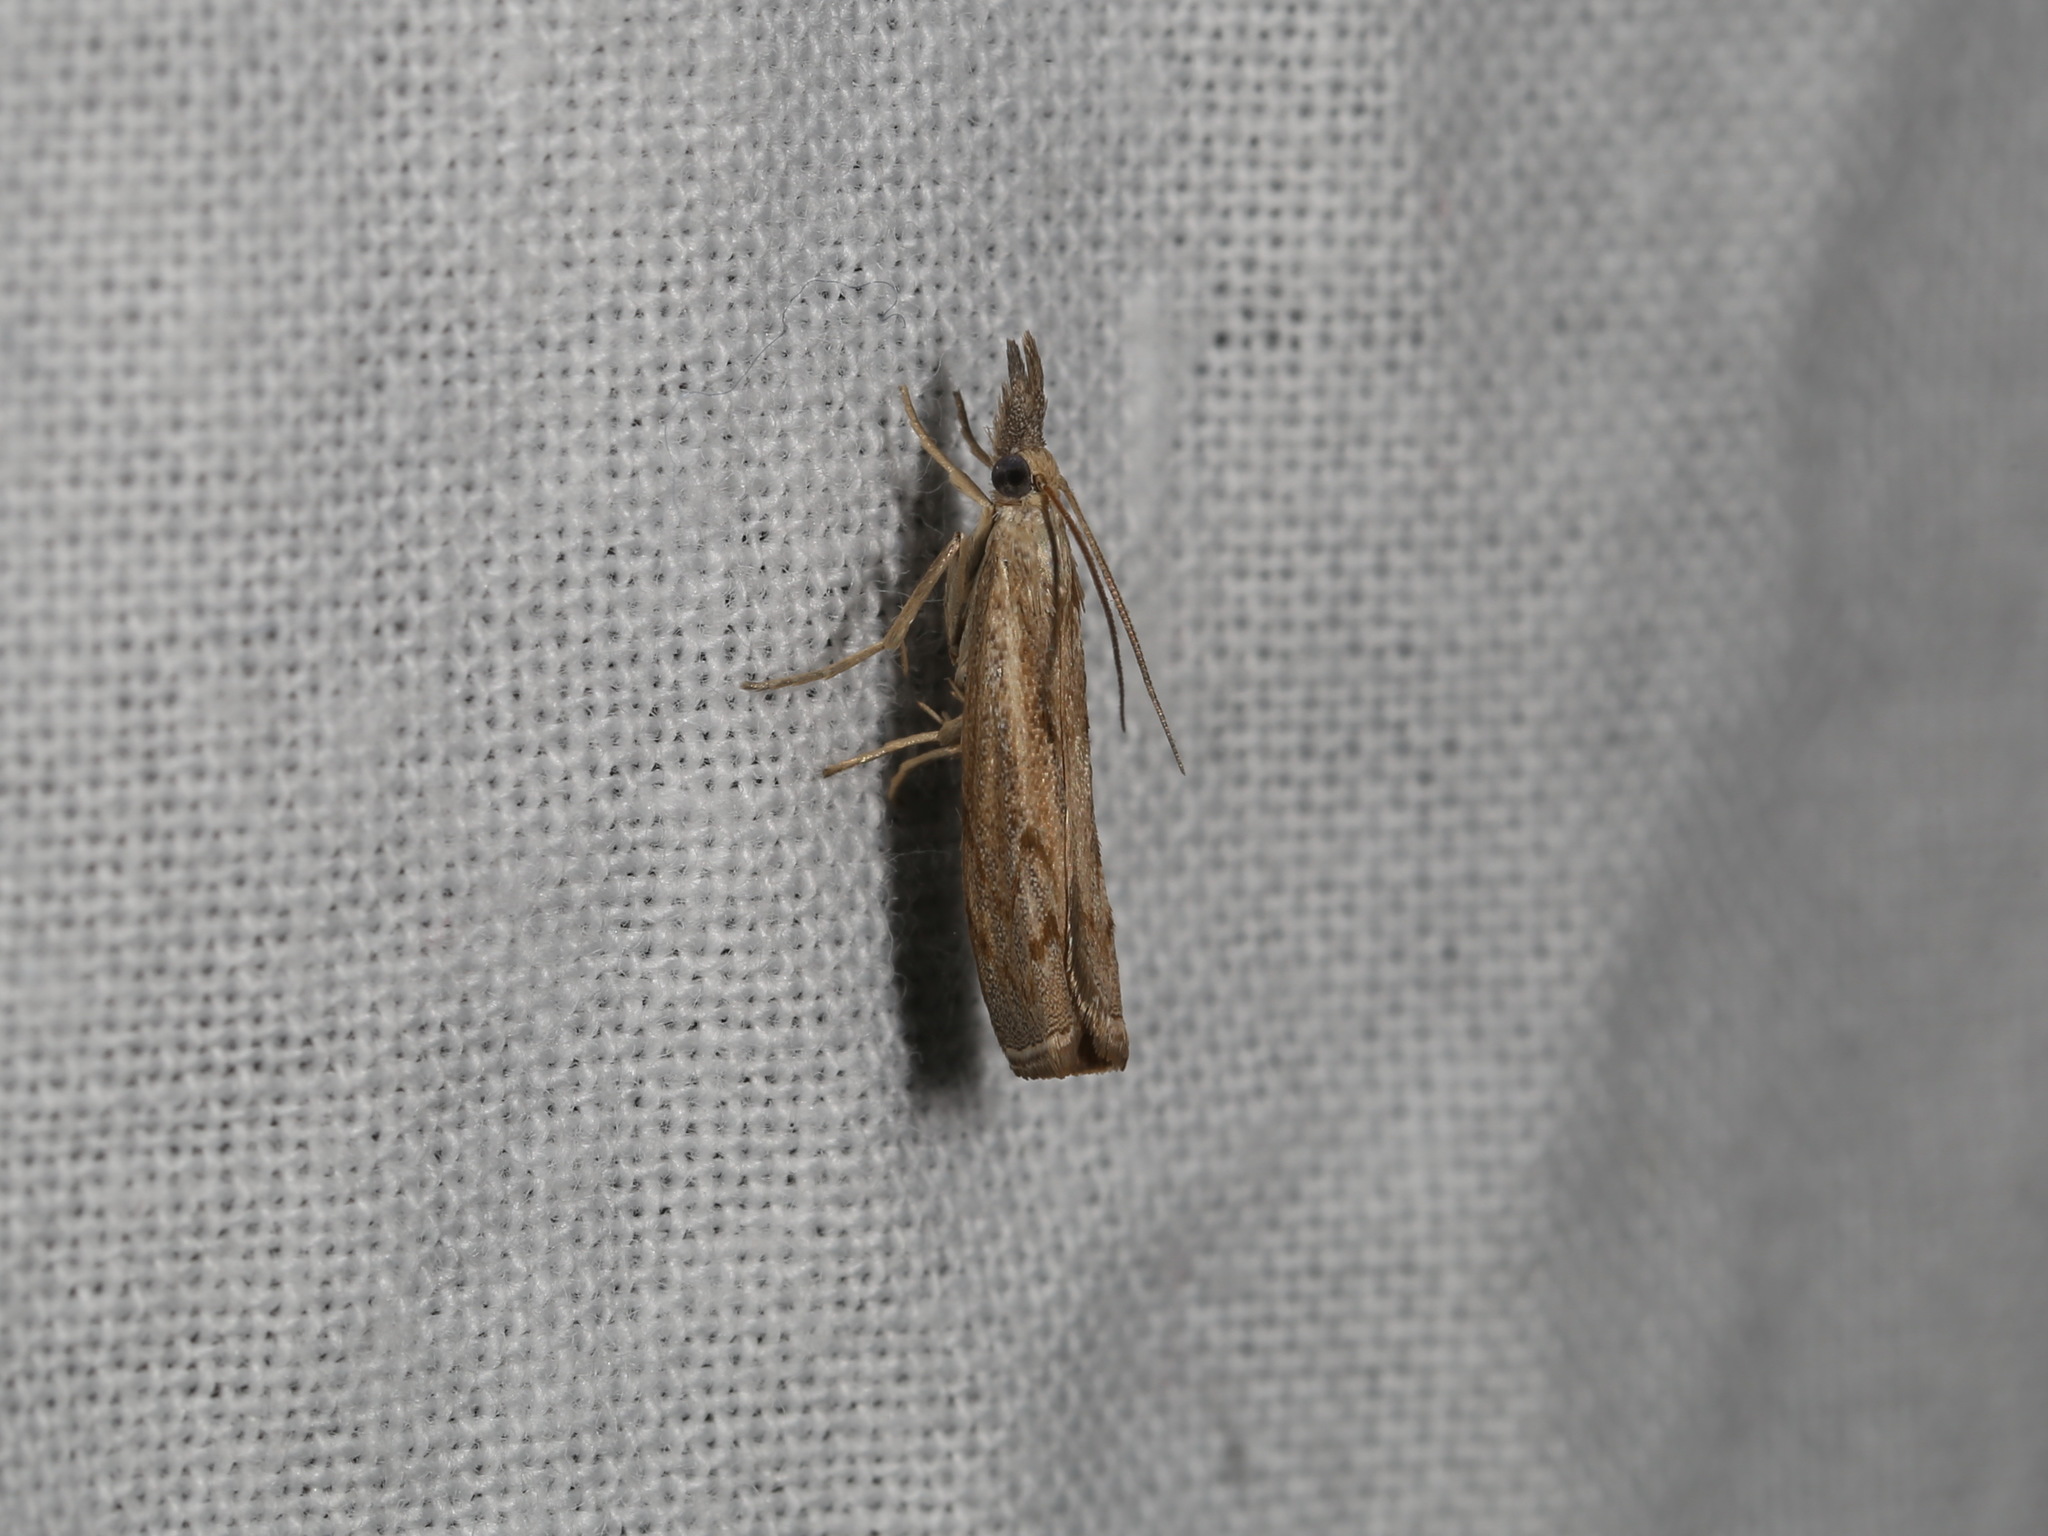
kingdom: Animalia
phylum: Arthropoda
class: Insecta
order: Lepidoptera
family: Crambidae
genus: Culladia
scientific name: Culladia cuneiferellus
